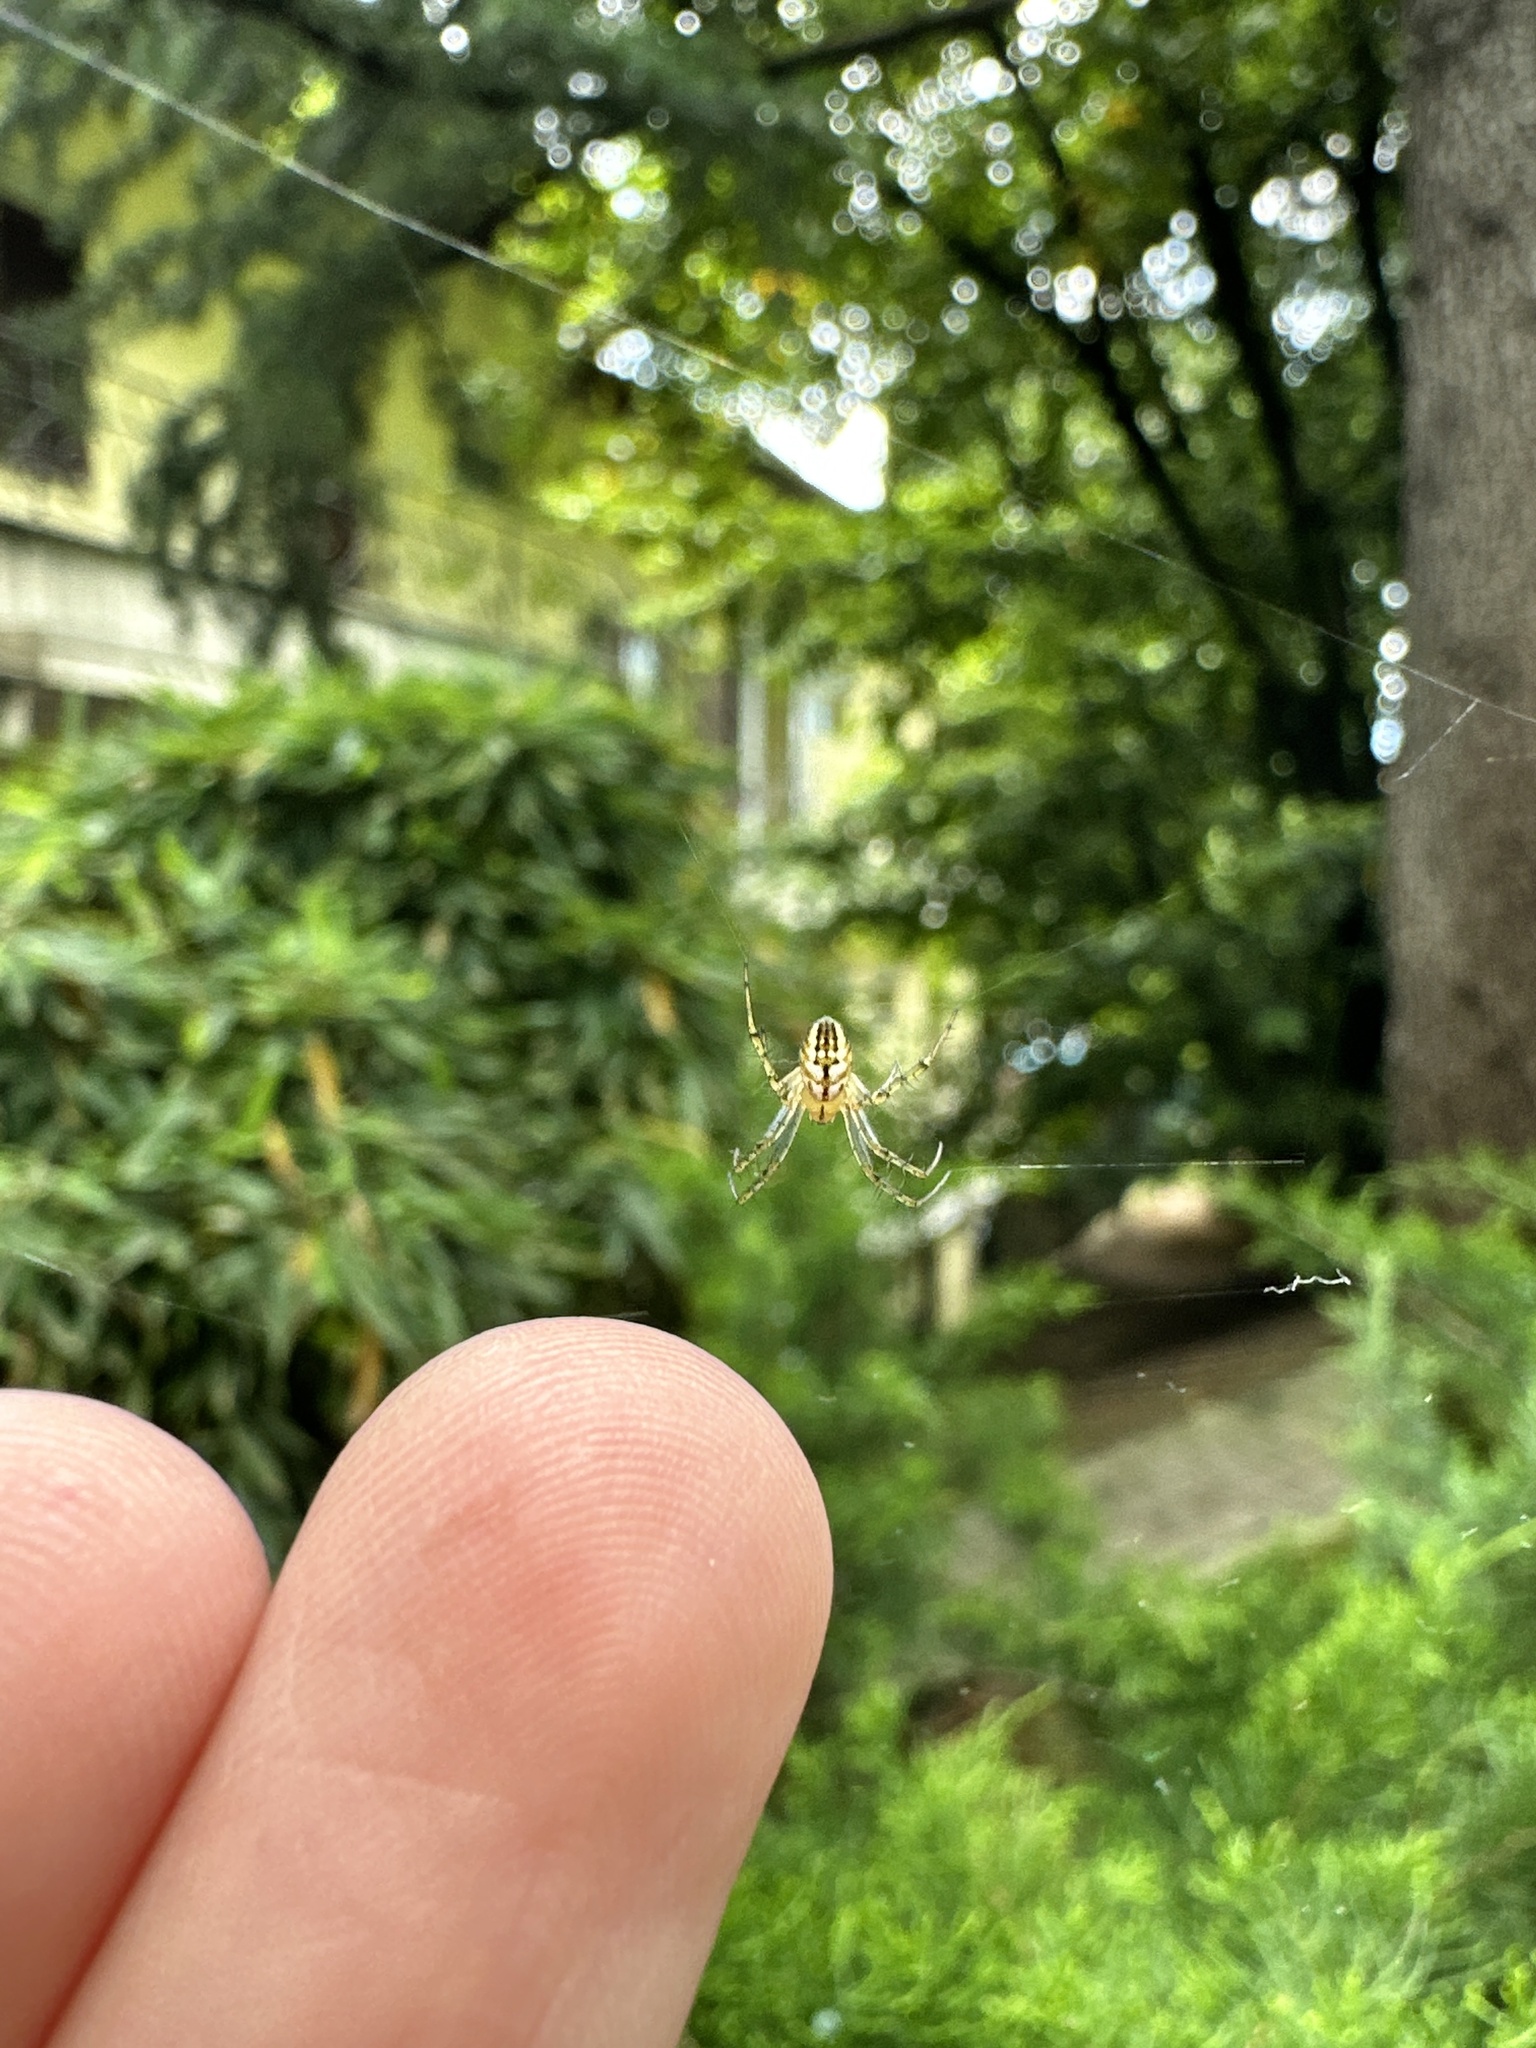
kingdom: Animalia
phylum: Arthropoda
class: Arachnida
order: Araneae
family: Araneidae
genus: Mangora
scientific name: Mangora acalypha
